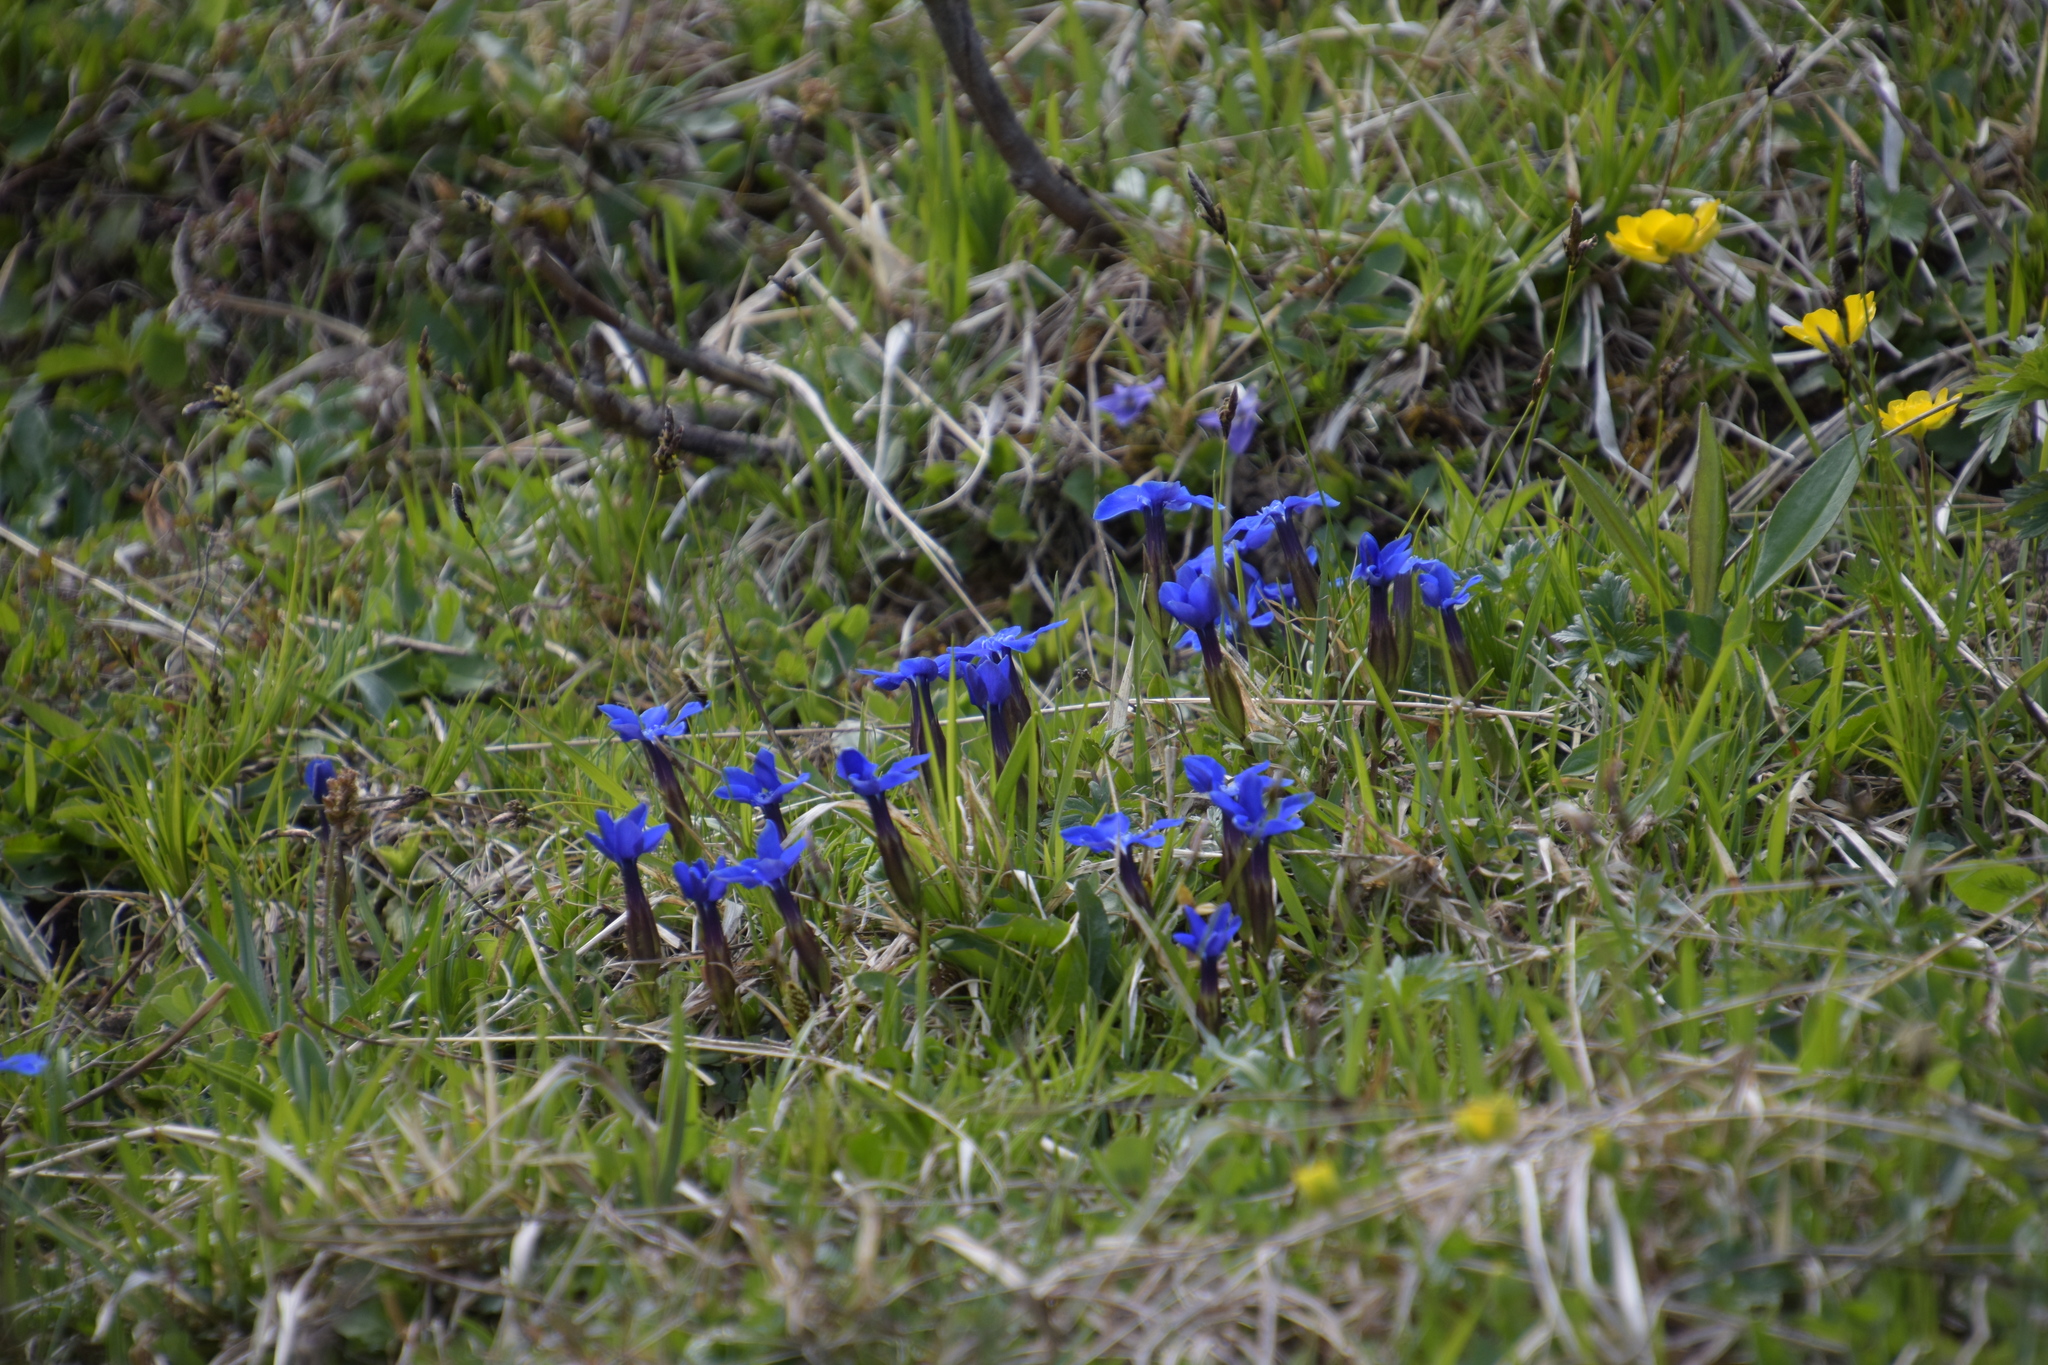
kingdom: Plantae
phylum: Tracheophyta
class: Magnoliopsida
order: Gentianales
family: Gentianaceae
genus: Gentiana
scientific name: Gentiana verna
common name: Spring gentian
